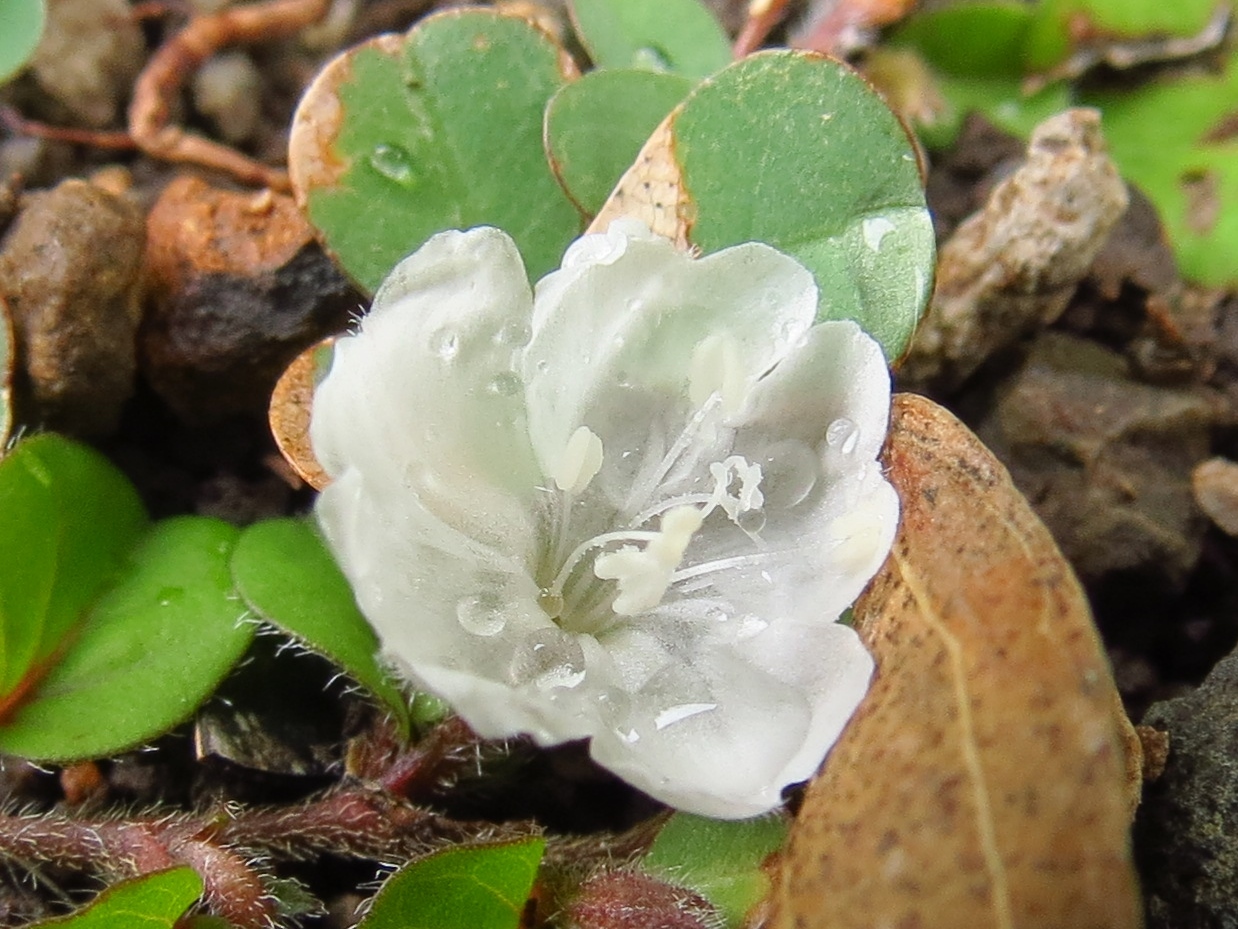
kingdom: Plantae
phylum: Tracheophyta
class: Magnoliopsida
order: Solanales
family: Convolvulaceae
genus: Evolvulus
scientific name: Evolvulus nummularius
